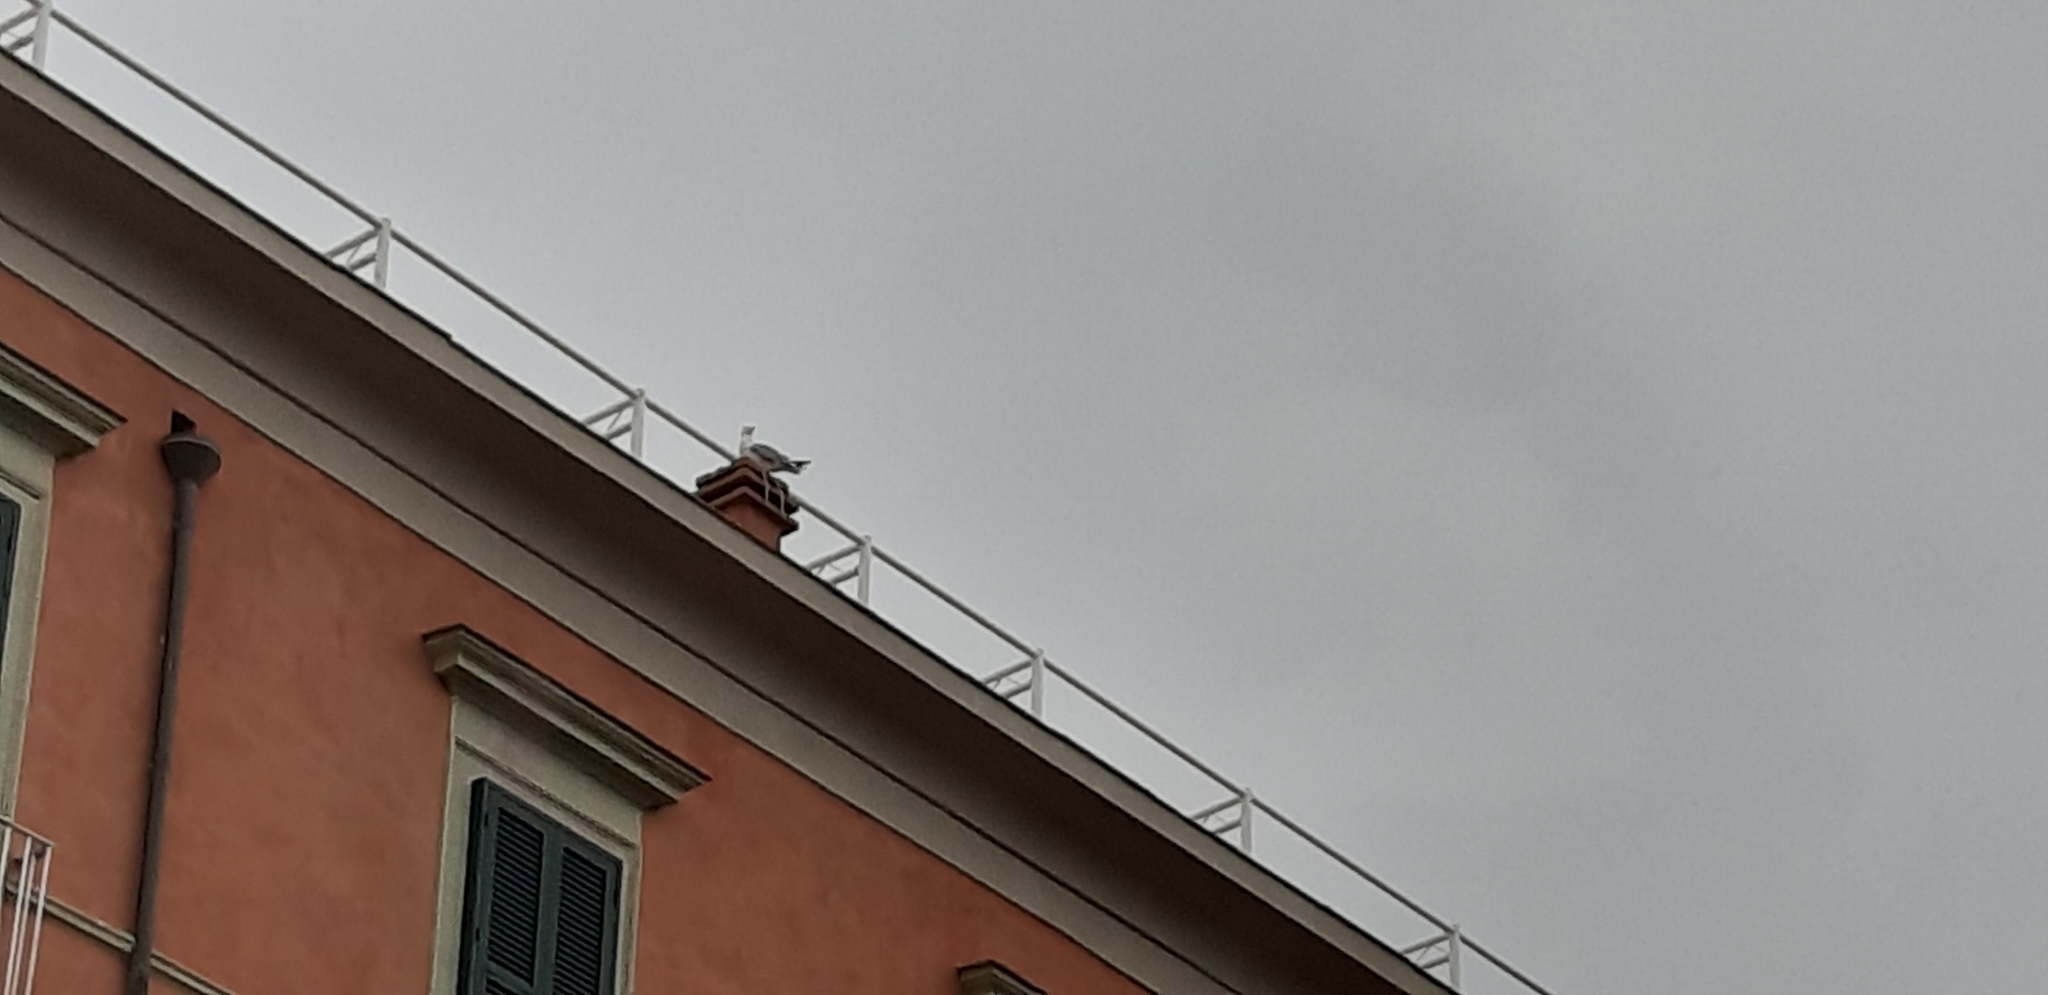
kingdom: Animalia
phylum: Chordata
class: Aves
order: Charadriiformes
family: Laridae
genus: Larus
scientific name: Larus michahellis
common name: Yellow-legged gull
